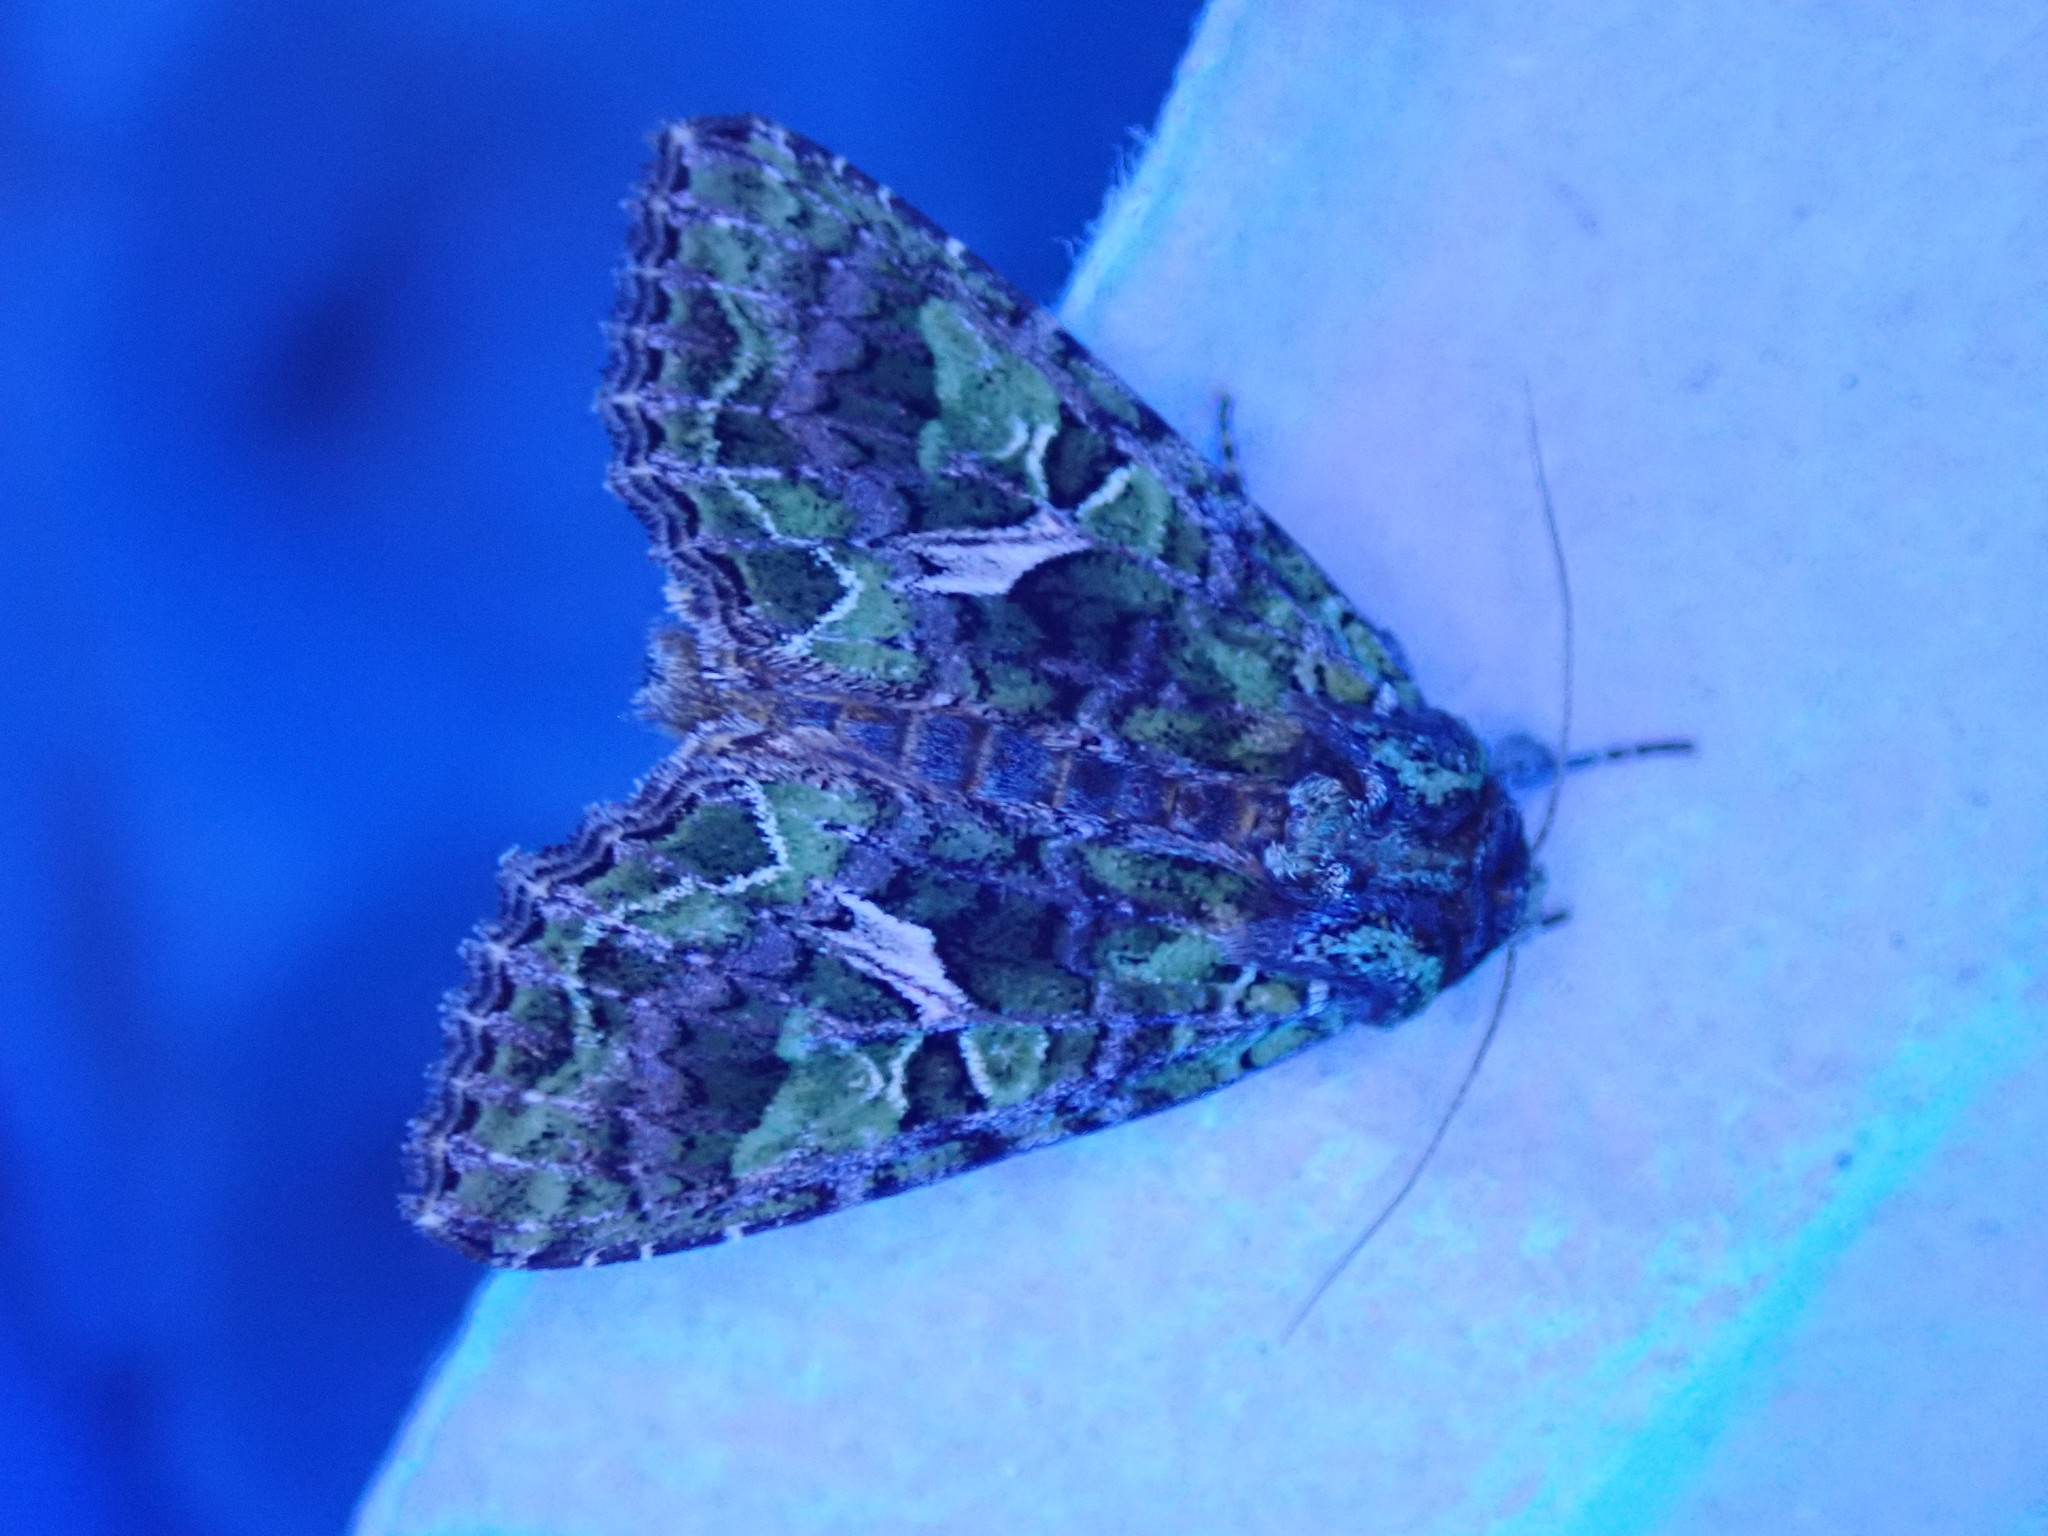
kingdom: Animalia
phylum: Arthropoda
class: Insecta
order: Lepidoptera
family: Noctuidae
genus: Trachea
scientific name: Trachea atriplicis
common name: Orache moth
